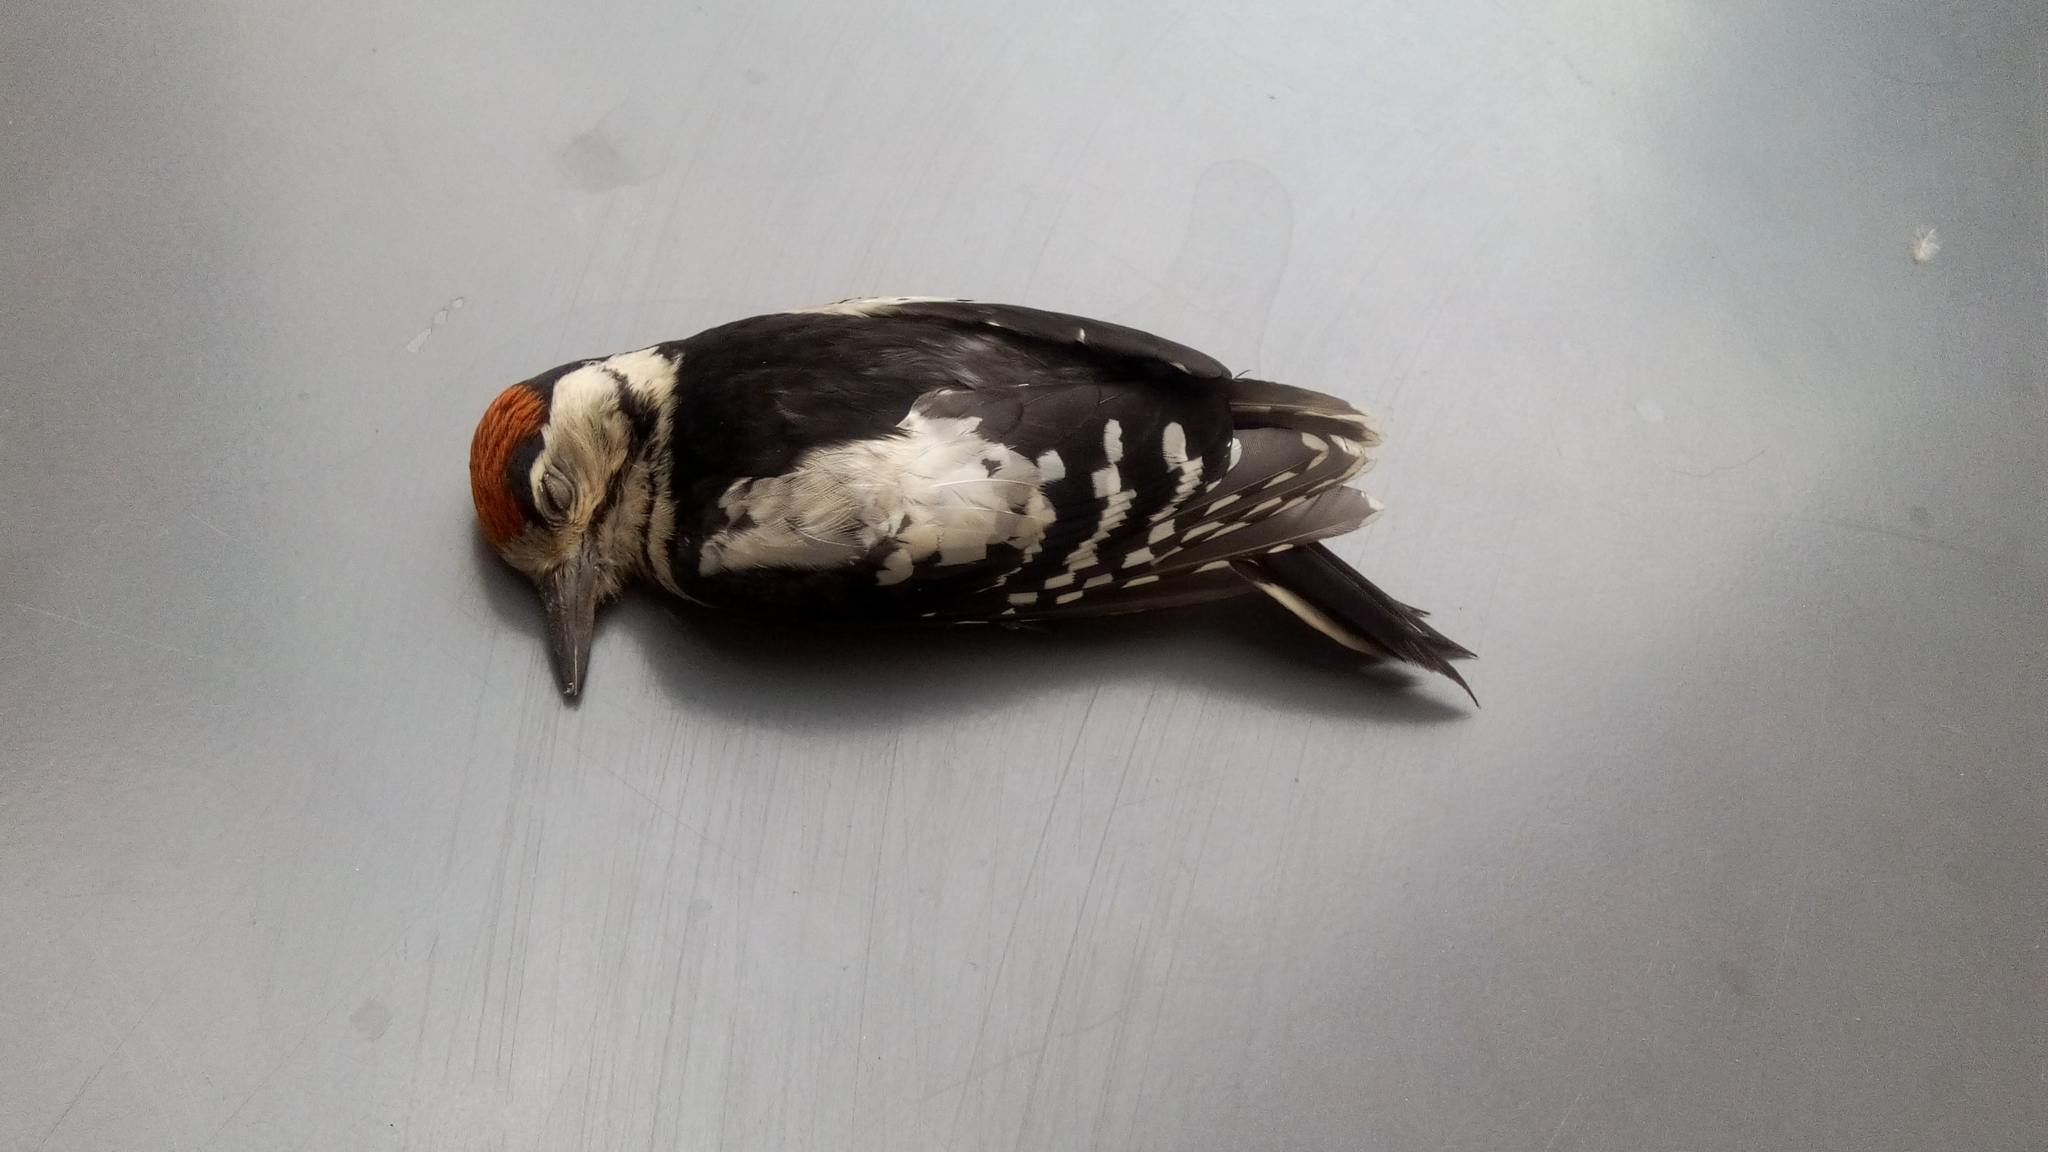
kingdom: Animalia
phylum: Chordata
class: Aves
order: Piciformes
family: Picidae
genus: Dendrocopos
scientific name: Dendrocopos major
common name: Great spotted woodpecker
